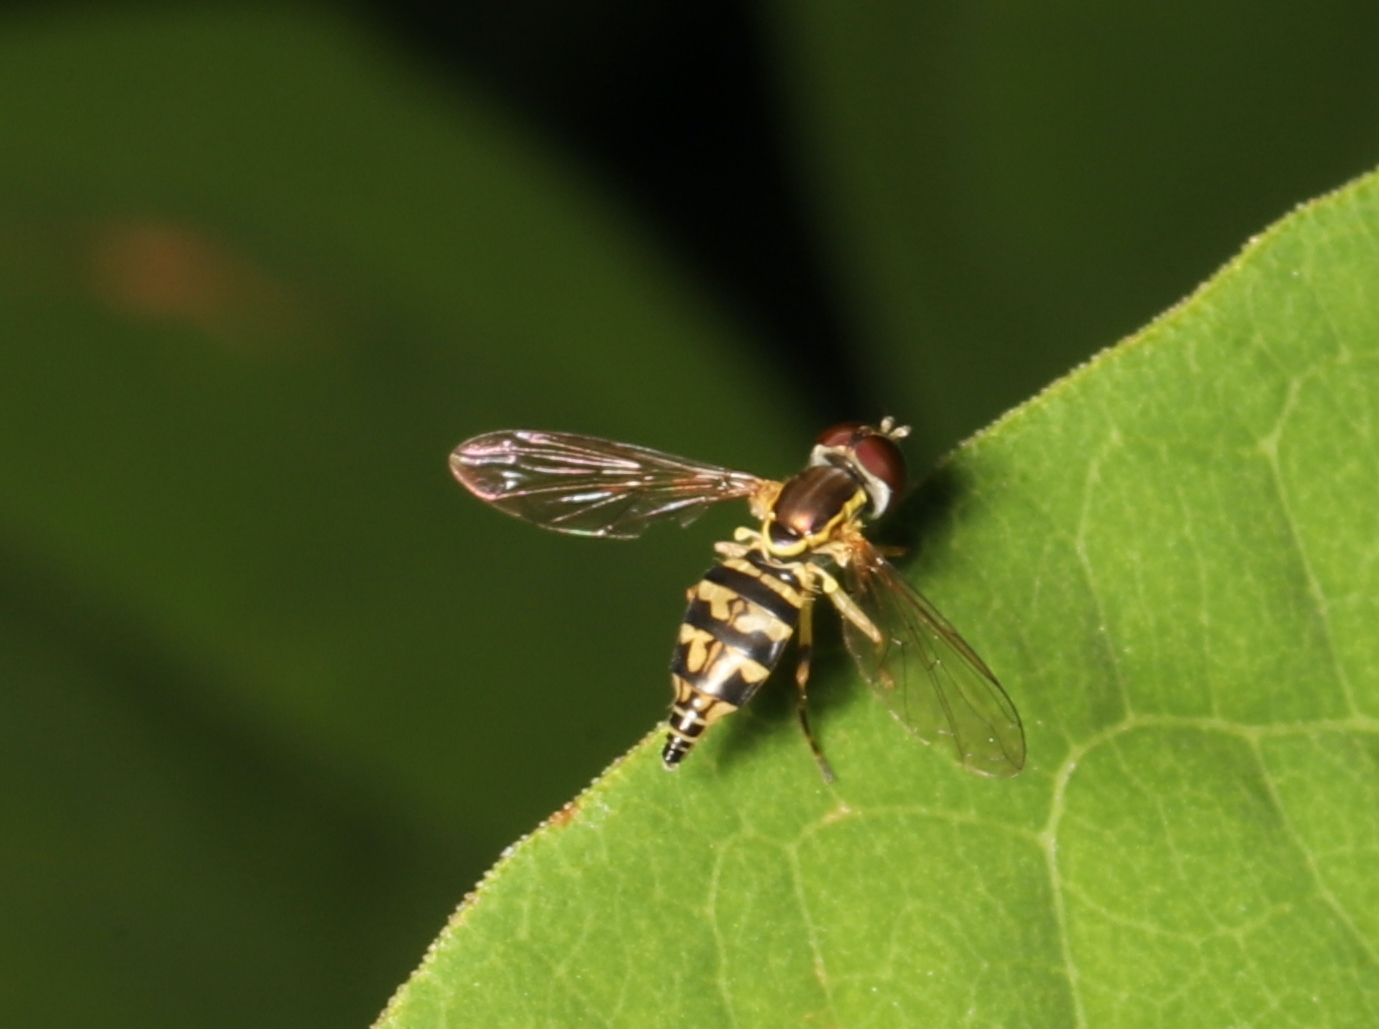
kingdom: Animalia
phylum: Arthropoda
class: Insecta
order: Diptera
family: Syrphidae
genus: Toxomerus
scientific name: Toxomerus geminatus
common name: Eastern calligrapher
